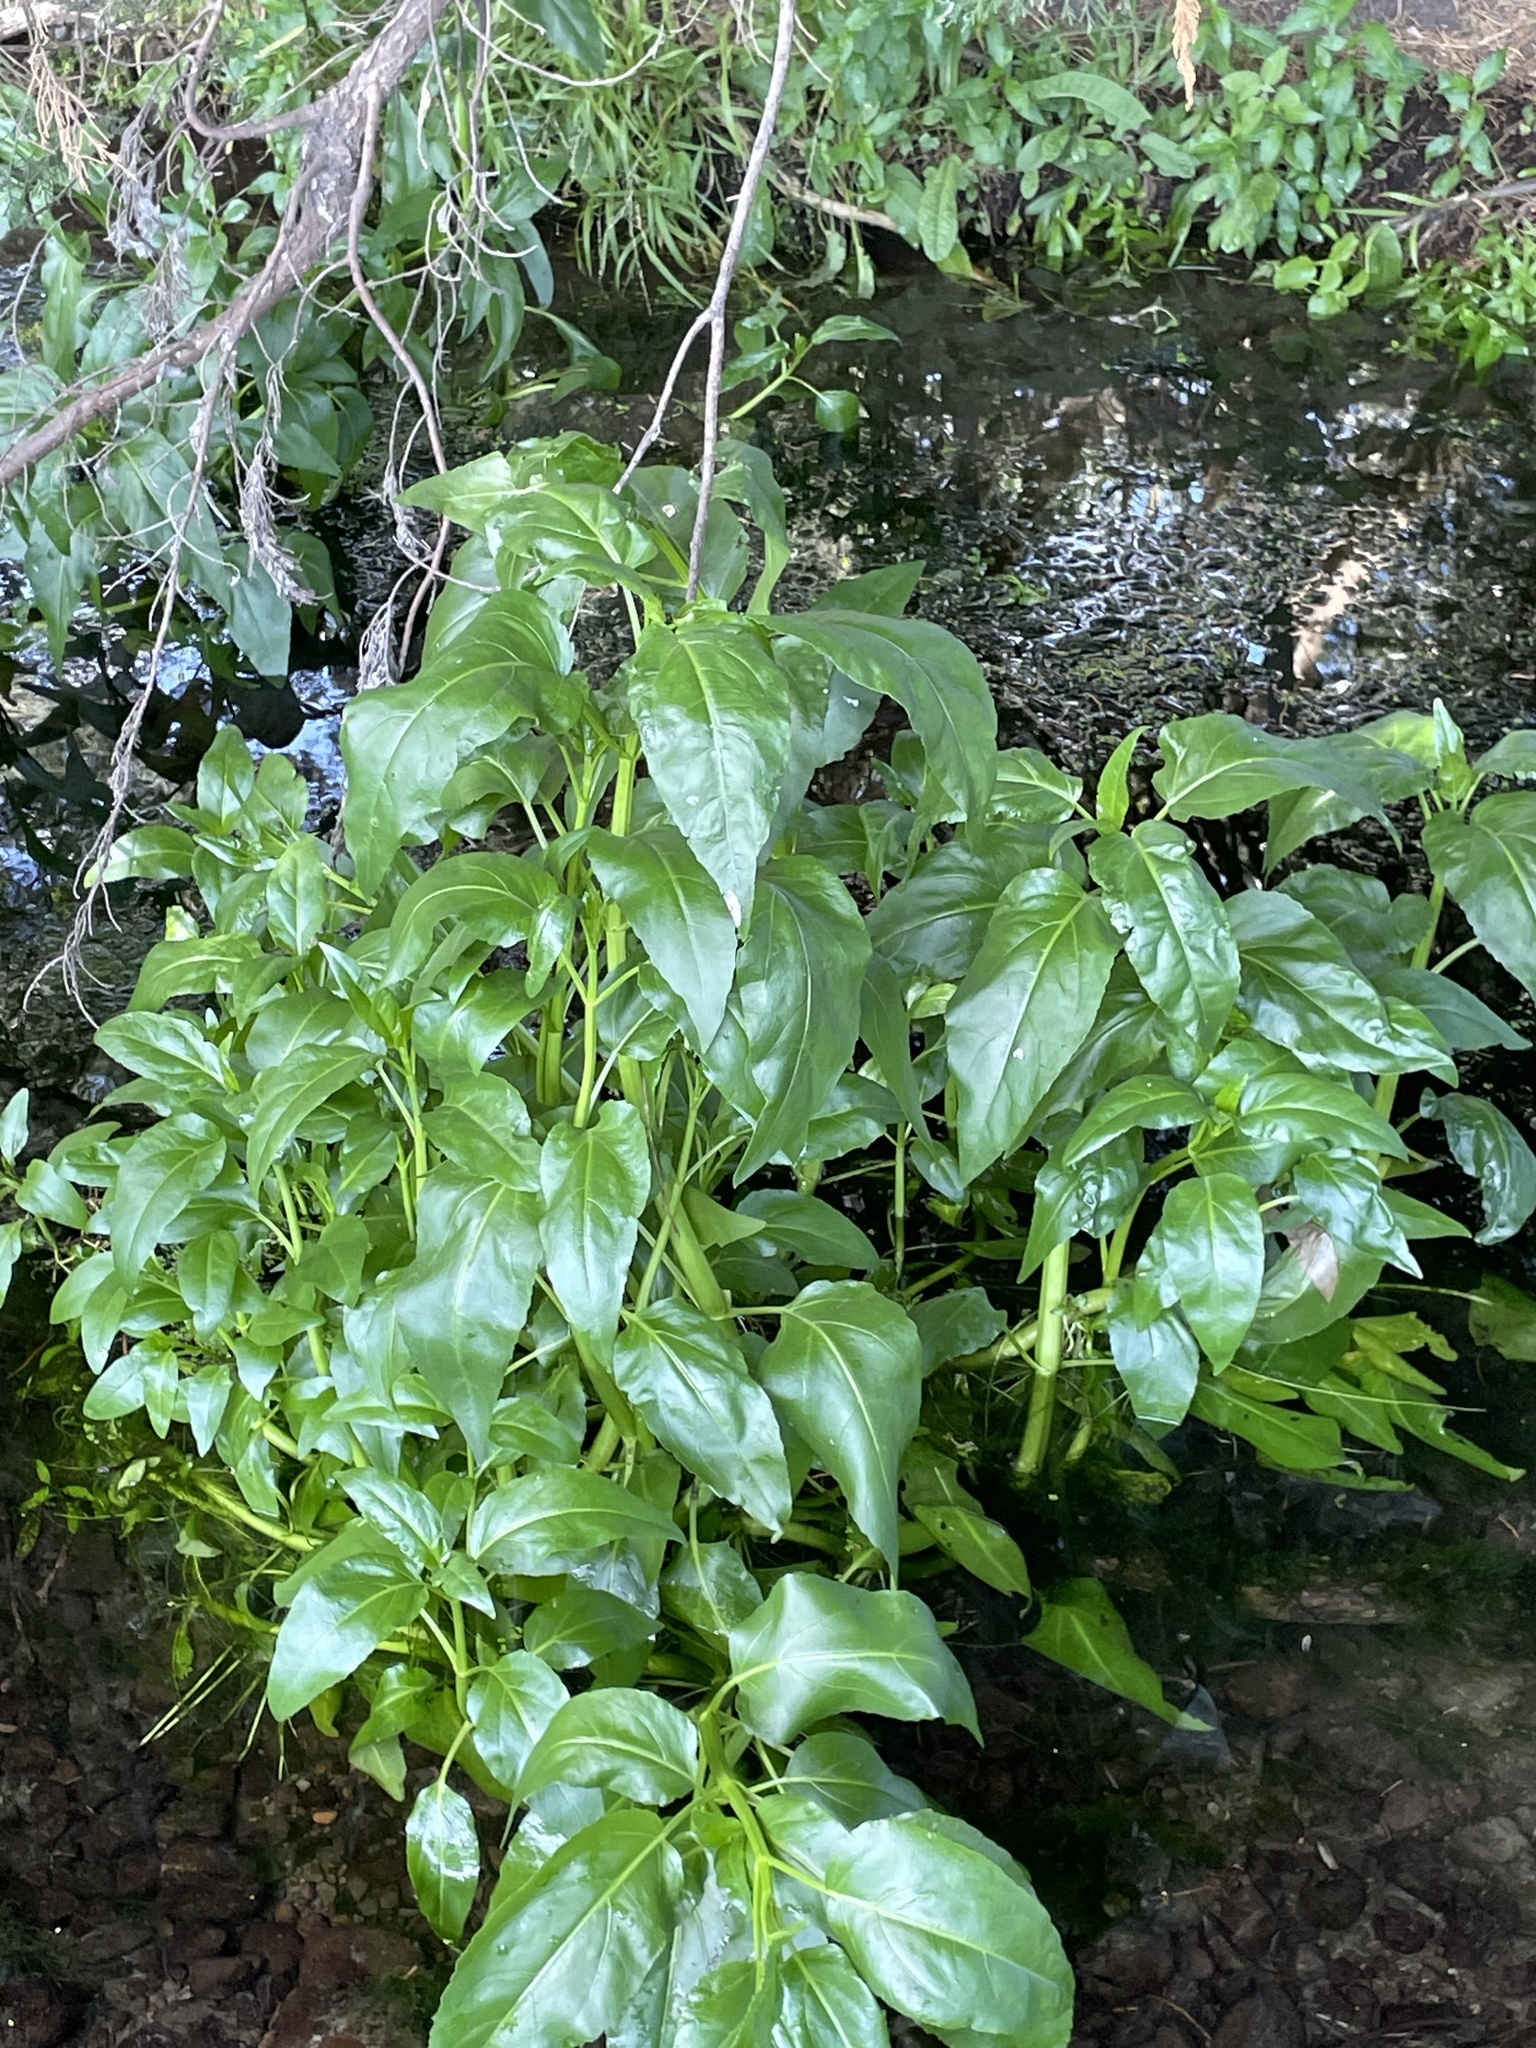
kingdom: Plantae
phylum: Tracheophyta
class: Magnoliopsida
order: Asterales
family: Asteraceae
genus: Gymnocoronis
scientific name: Gymnocoronis spilanthoides
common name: Senegal teaplant
